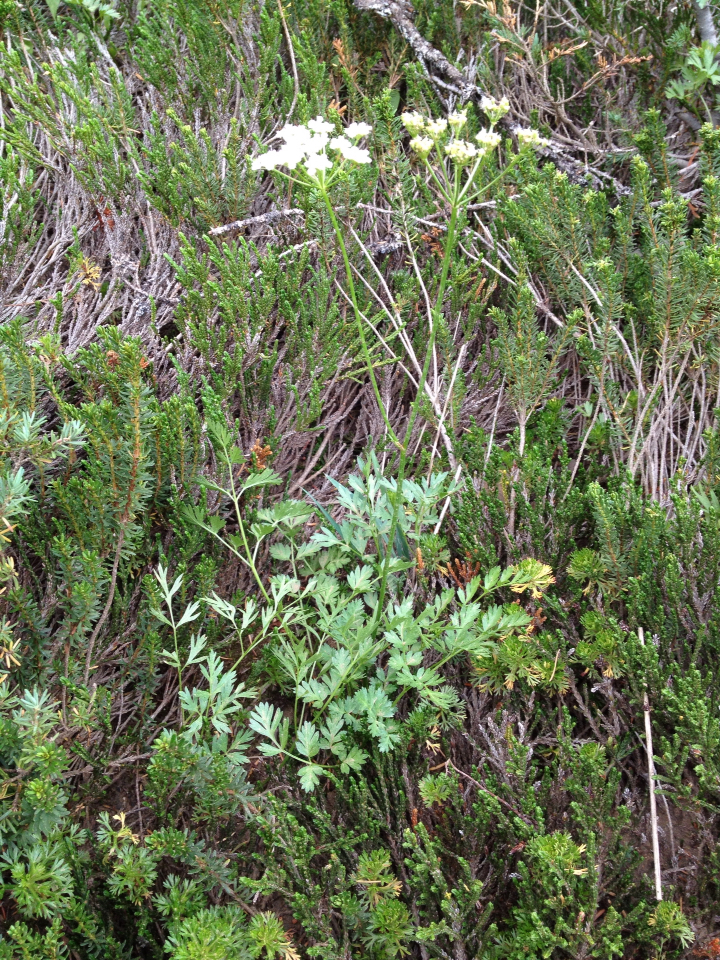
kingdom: Plantae
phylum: Tracheophyta
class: Magnoliopsida
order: Apiales
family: Apiaceae
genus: Ligusticum
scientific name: Ligusticum grayi
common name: Gray's licorice-root
